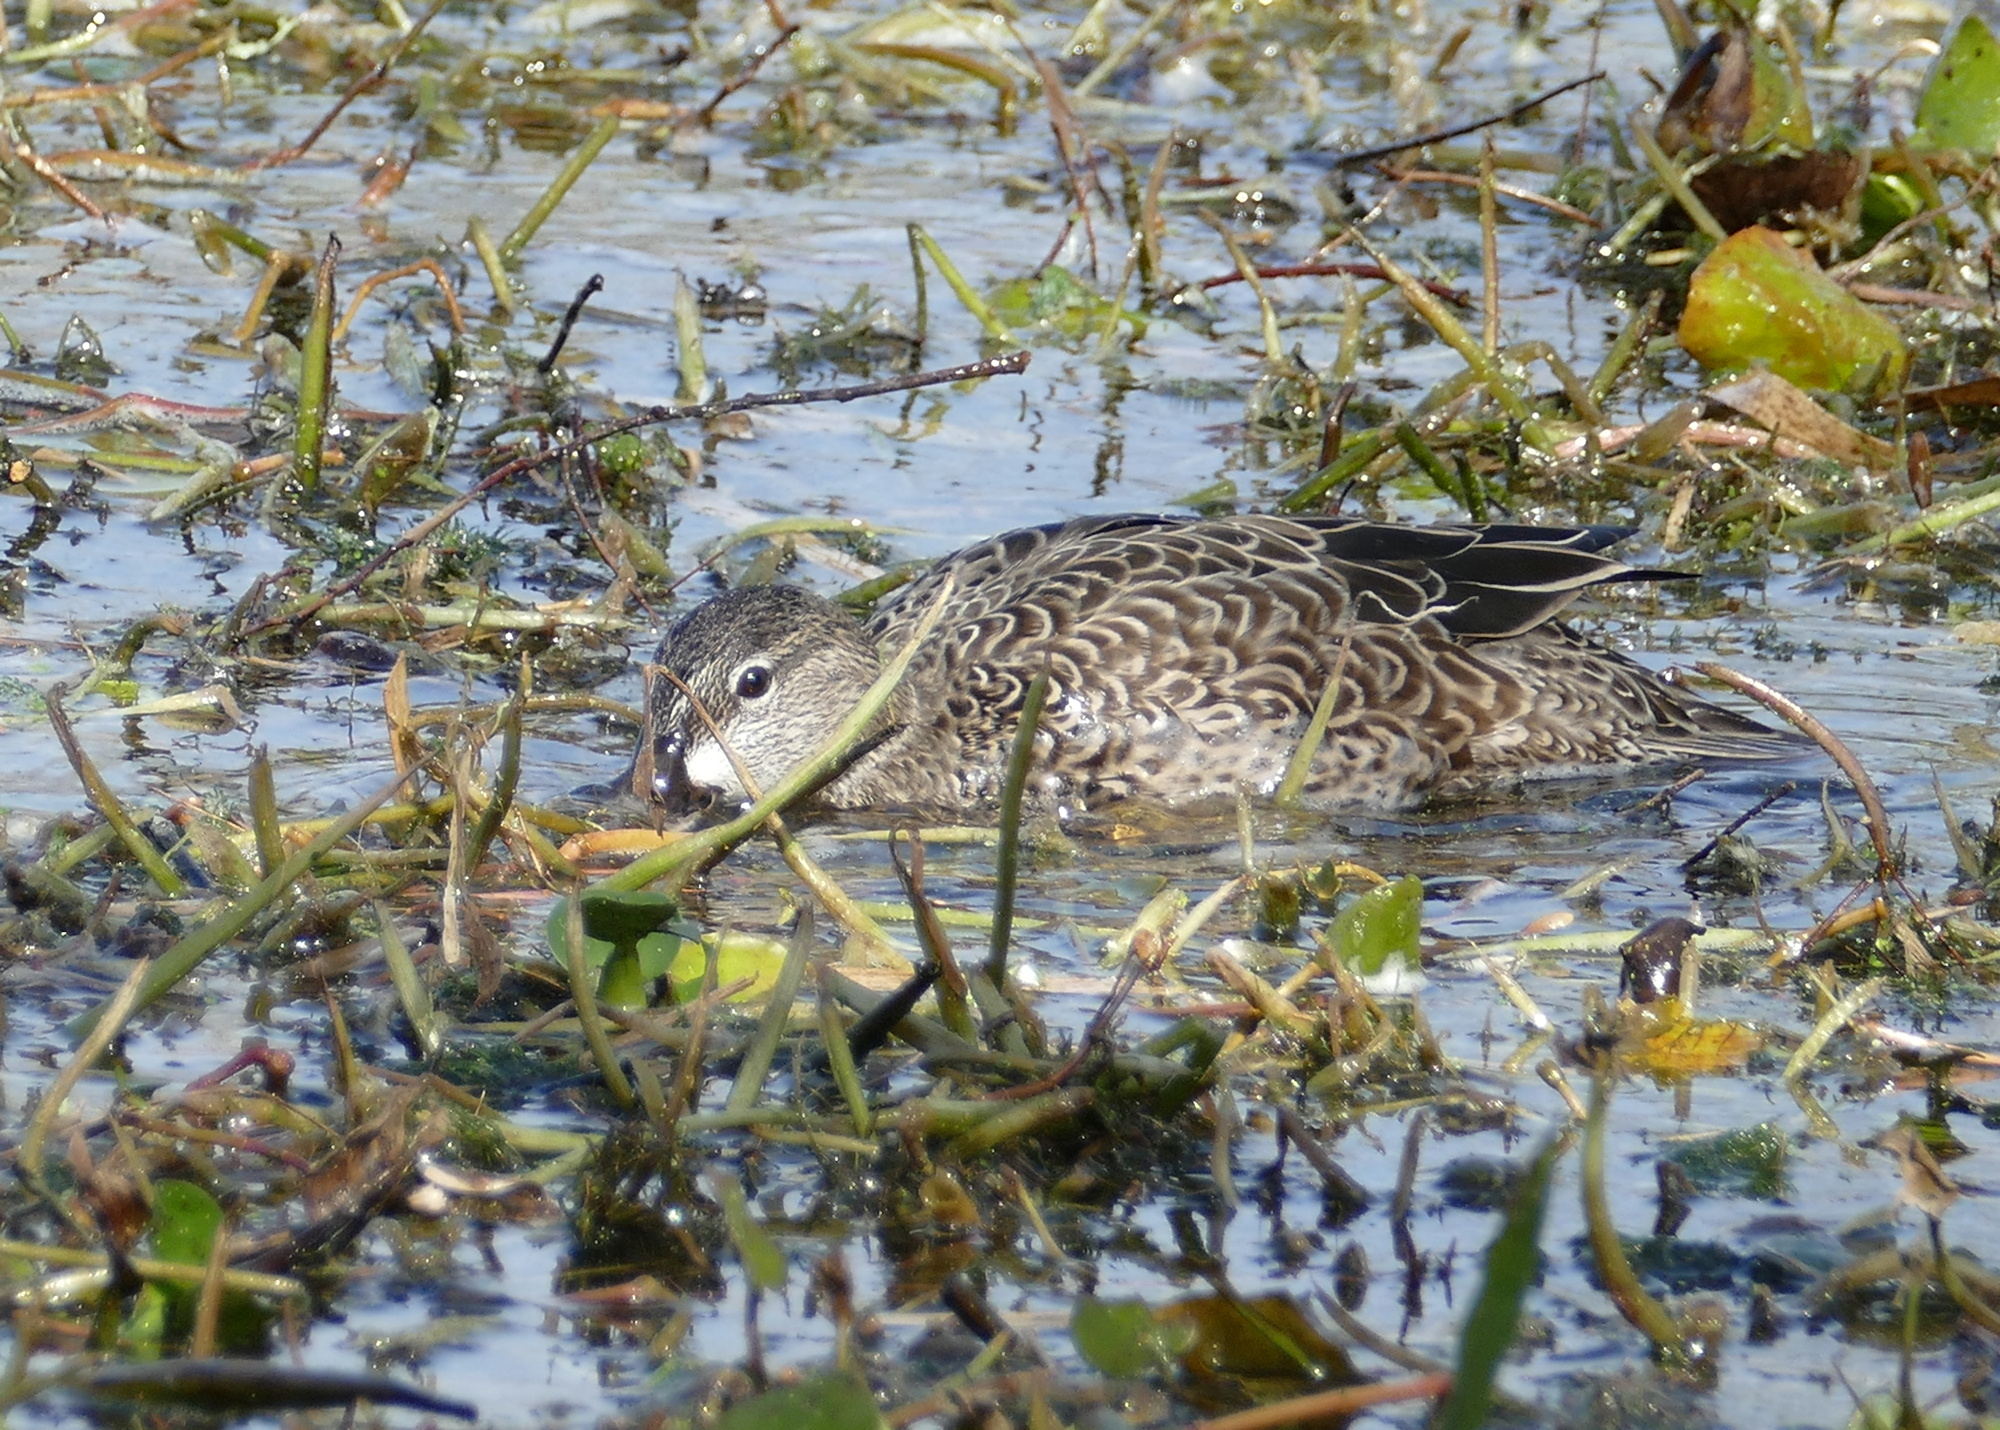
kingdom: Animalia
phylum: Chordata
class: Aves
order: Anseriformes
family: Anatidae
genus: Spatula
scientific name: Spatula discors
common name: Blue-winged teal
